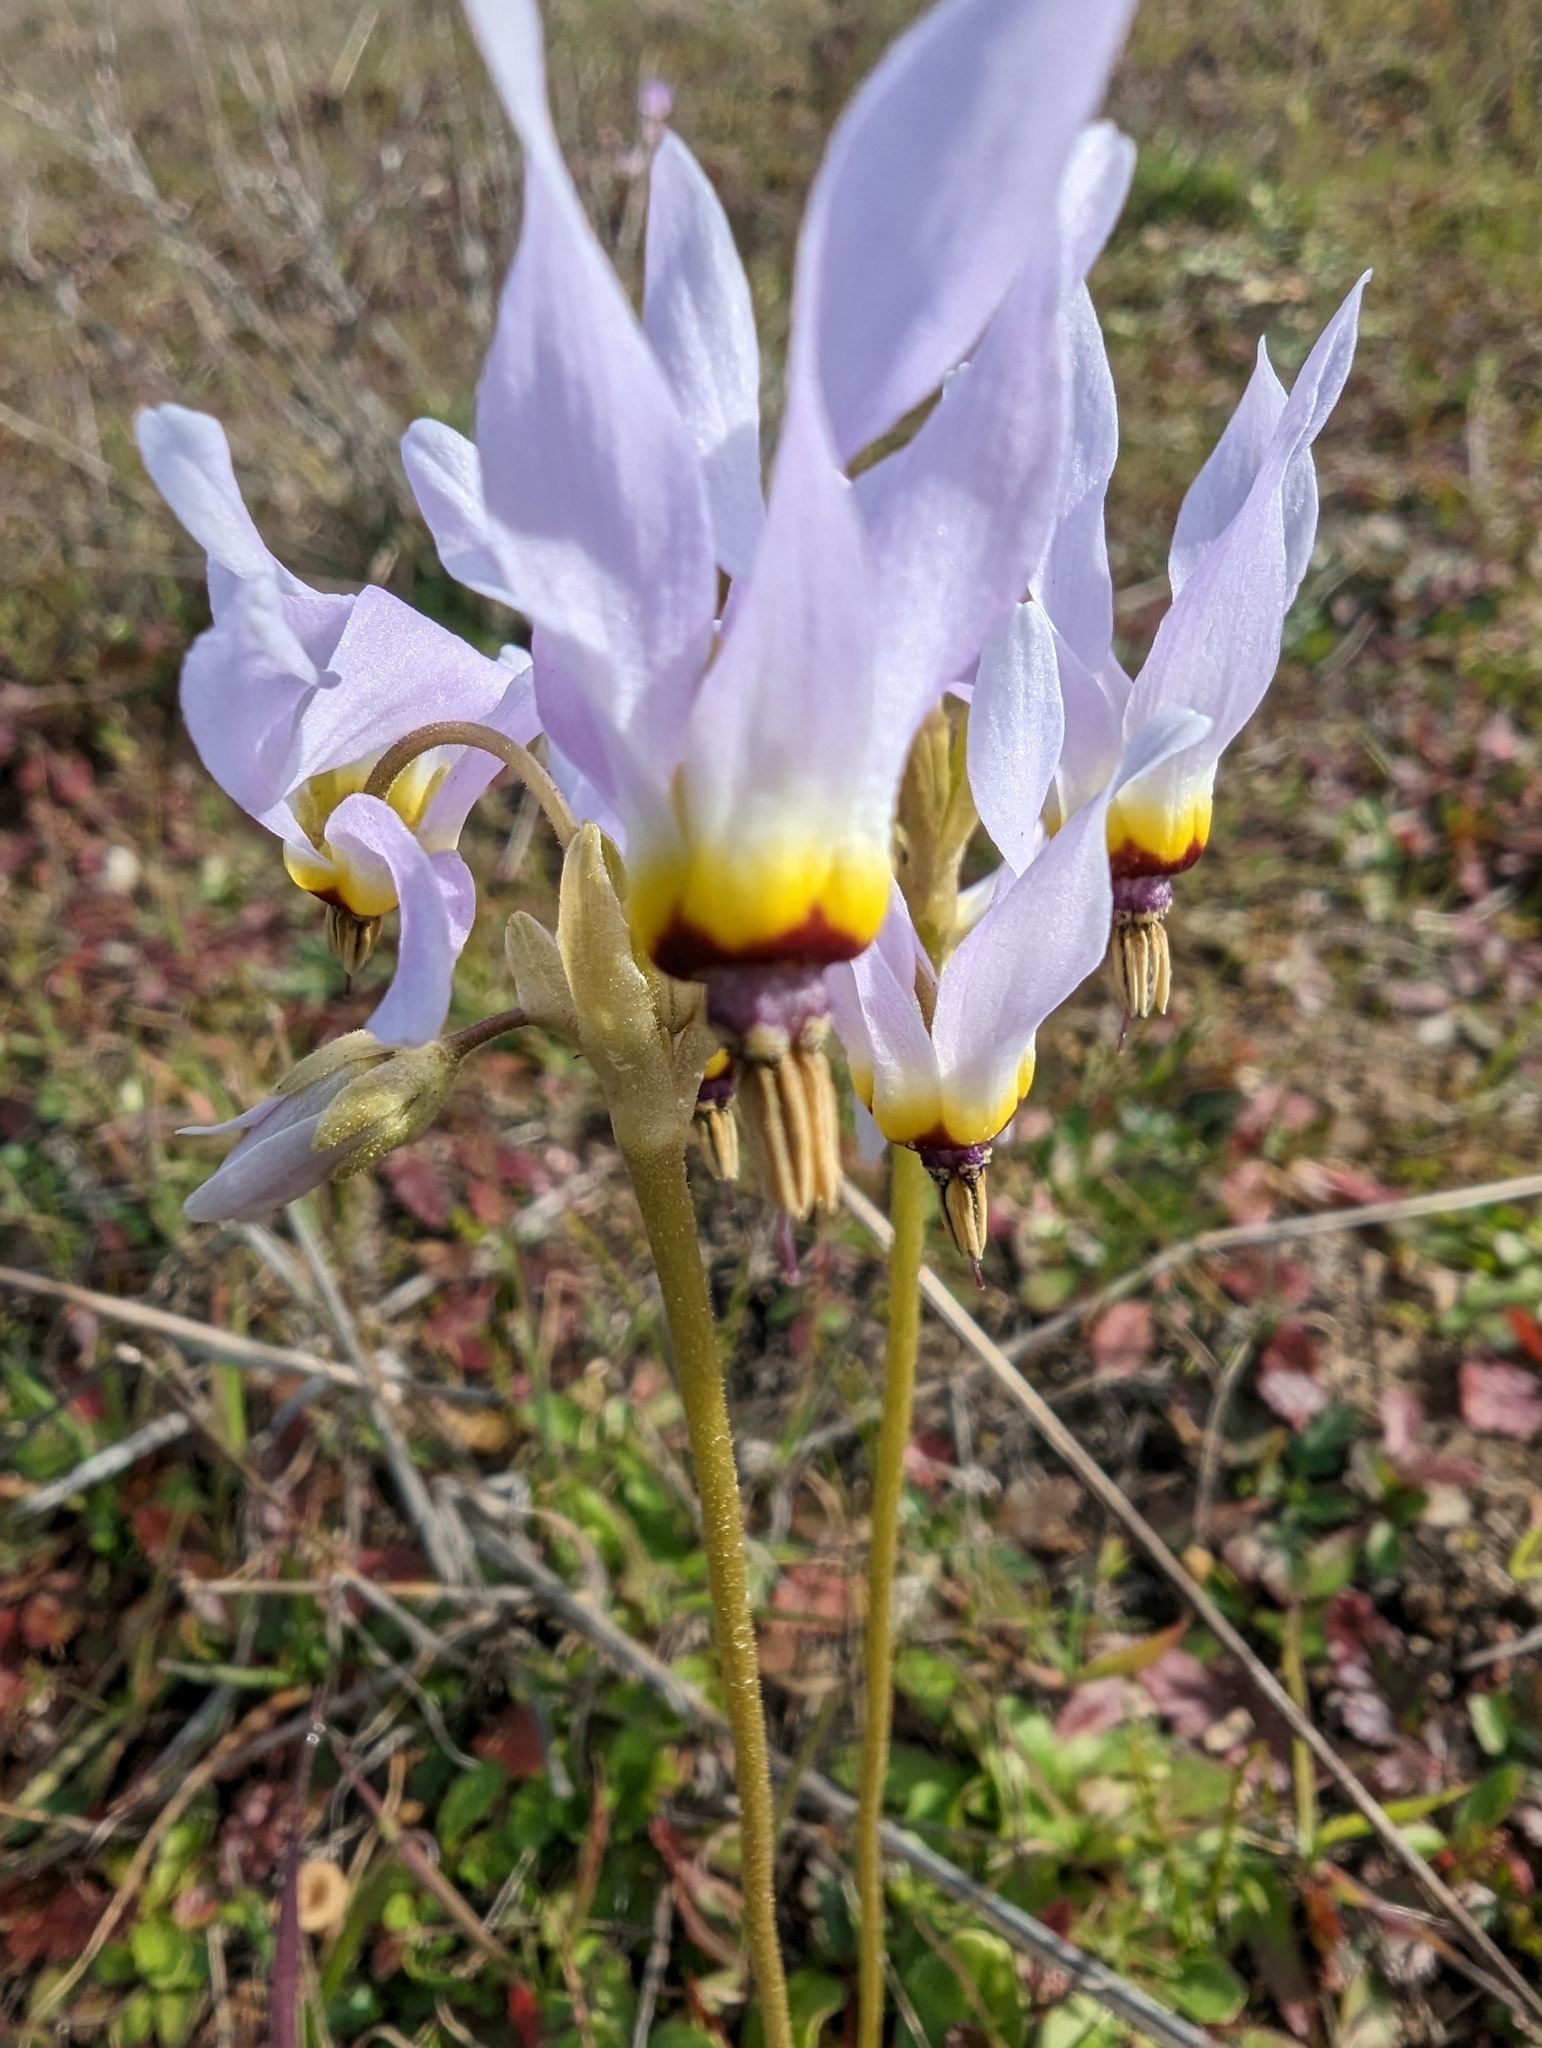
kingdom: Plantae
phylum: Tracheophyta
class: Magnoliopsida
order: Ericales
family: Primulaceae
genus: Dodecatheon
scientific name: Dodecatheon clevelandii
